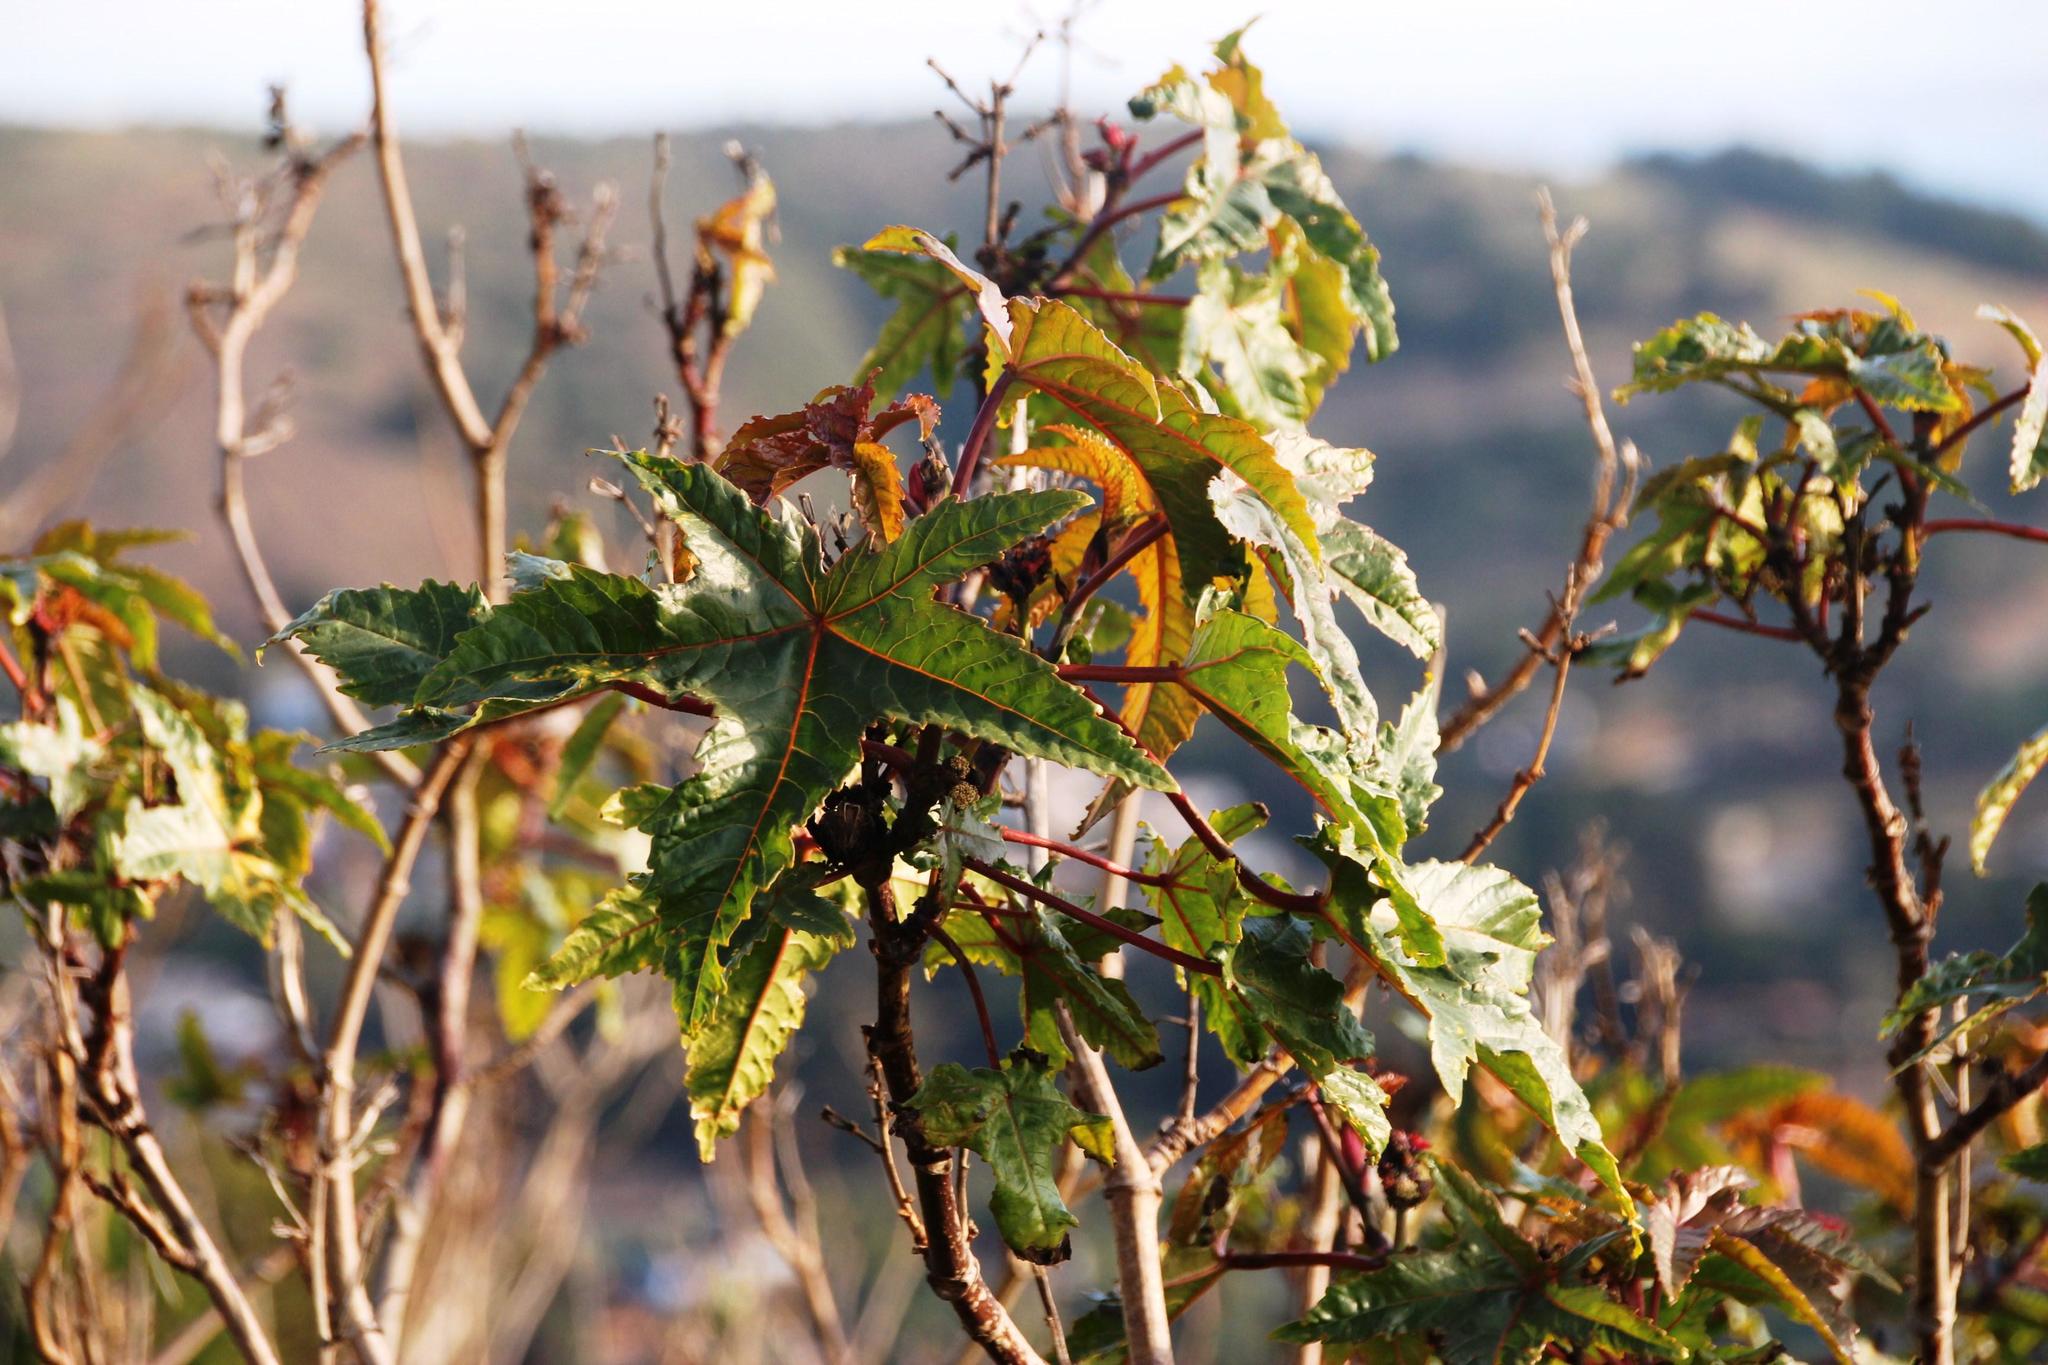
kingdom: Plantae
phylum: Tracheophyta
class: Magnoliopsida
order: Malpighiales
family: Euphorbiaceae
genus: Ricinus
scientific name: Ricinus communis
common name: Castor-oil-plant
